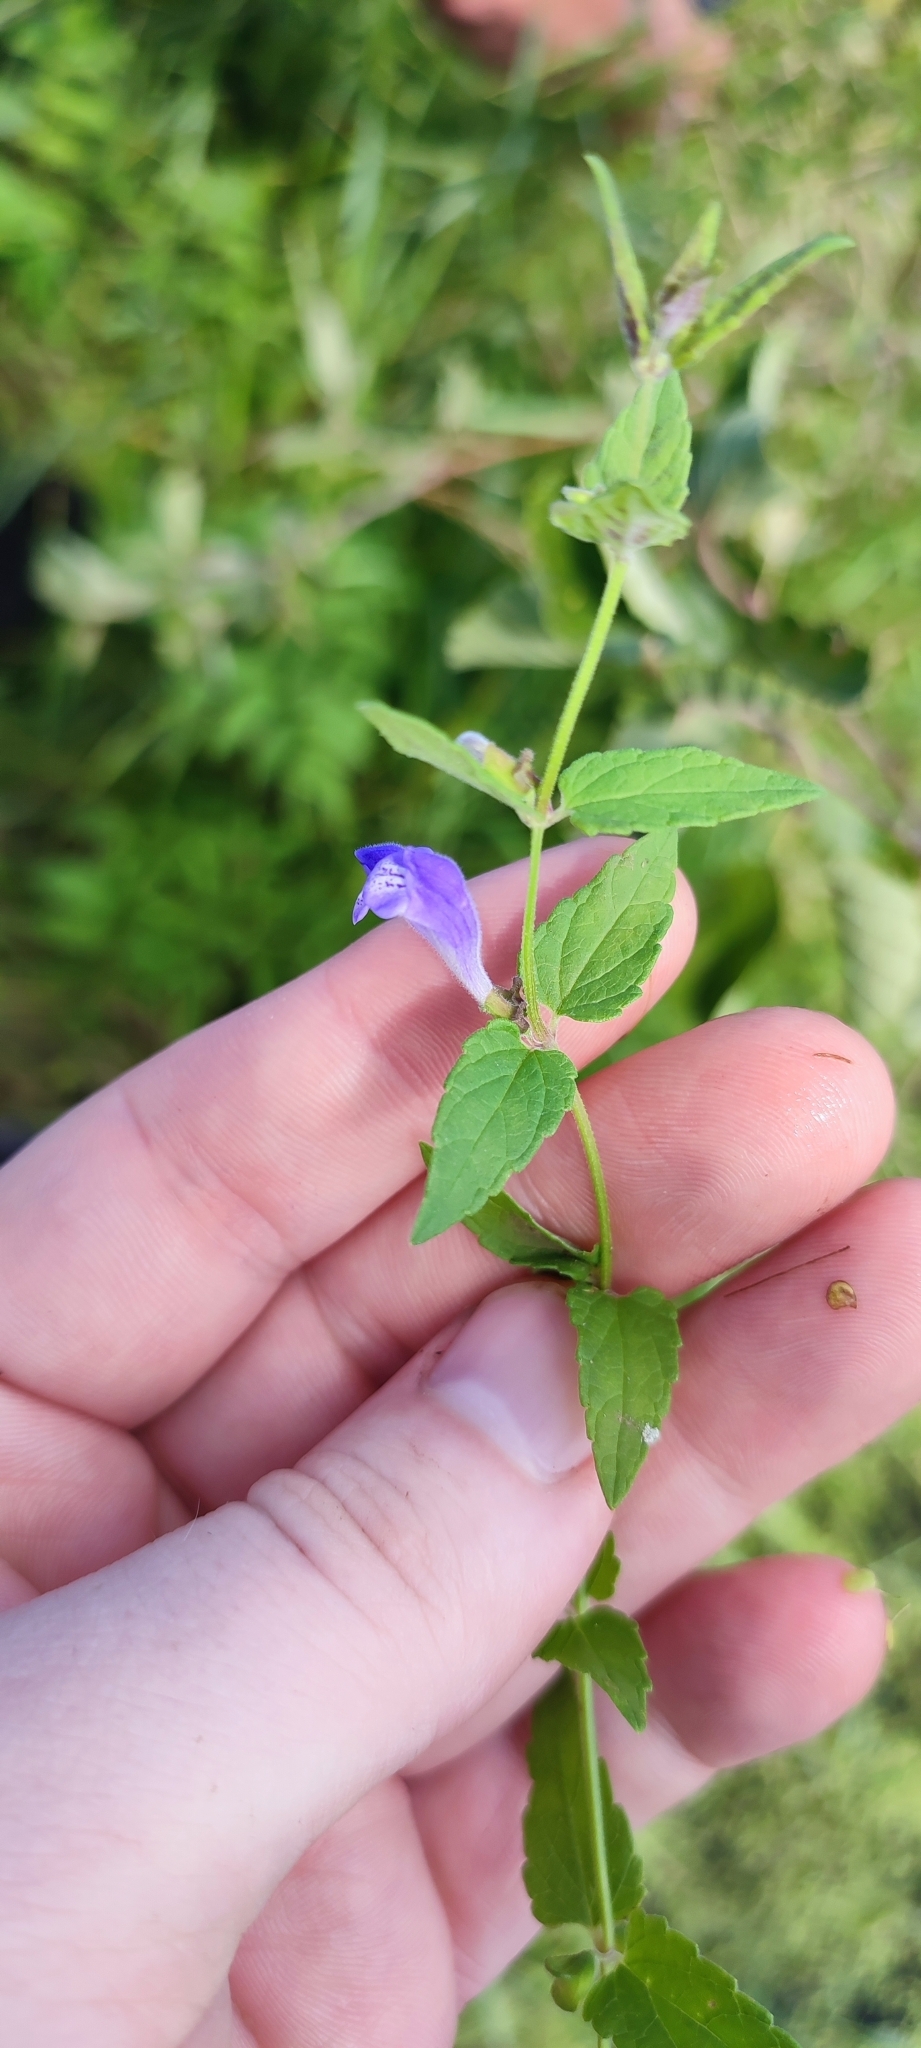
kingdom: Plantae
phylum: Tracheophyta
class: Magnoliopsida
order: Lamiales
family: Lamiaceae
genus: Scutellaria
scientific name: Scutellaria galericulata
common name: Skullcap
